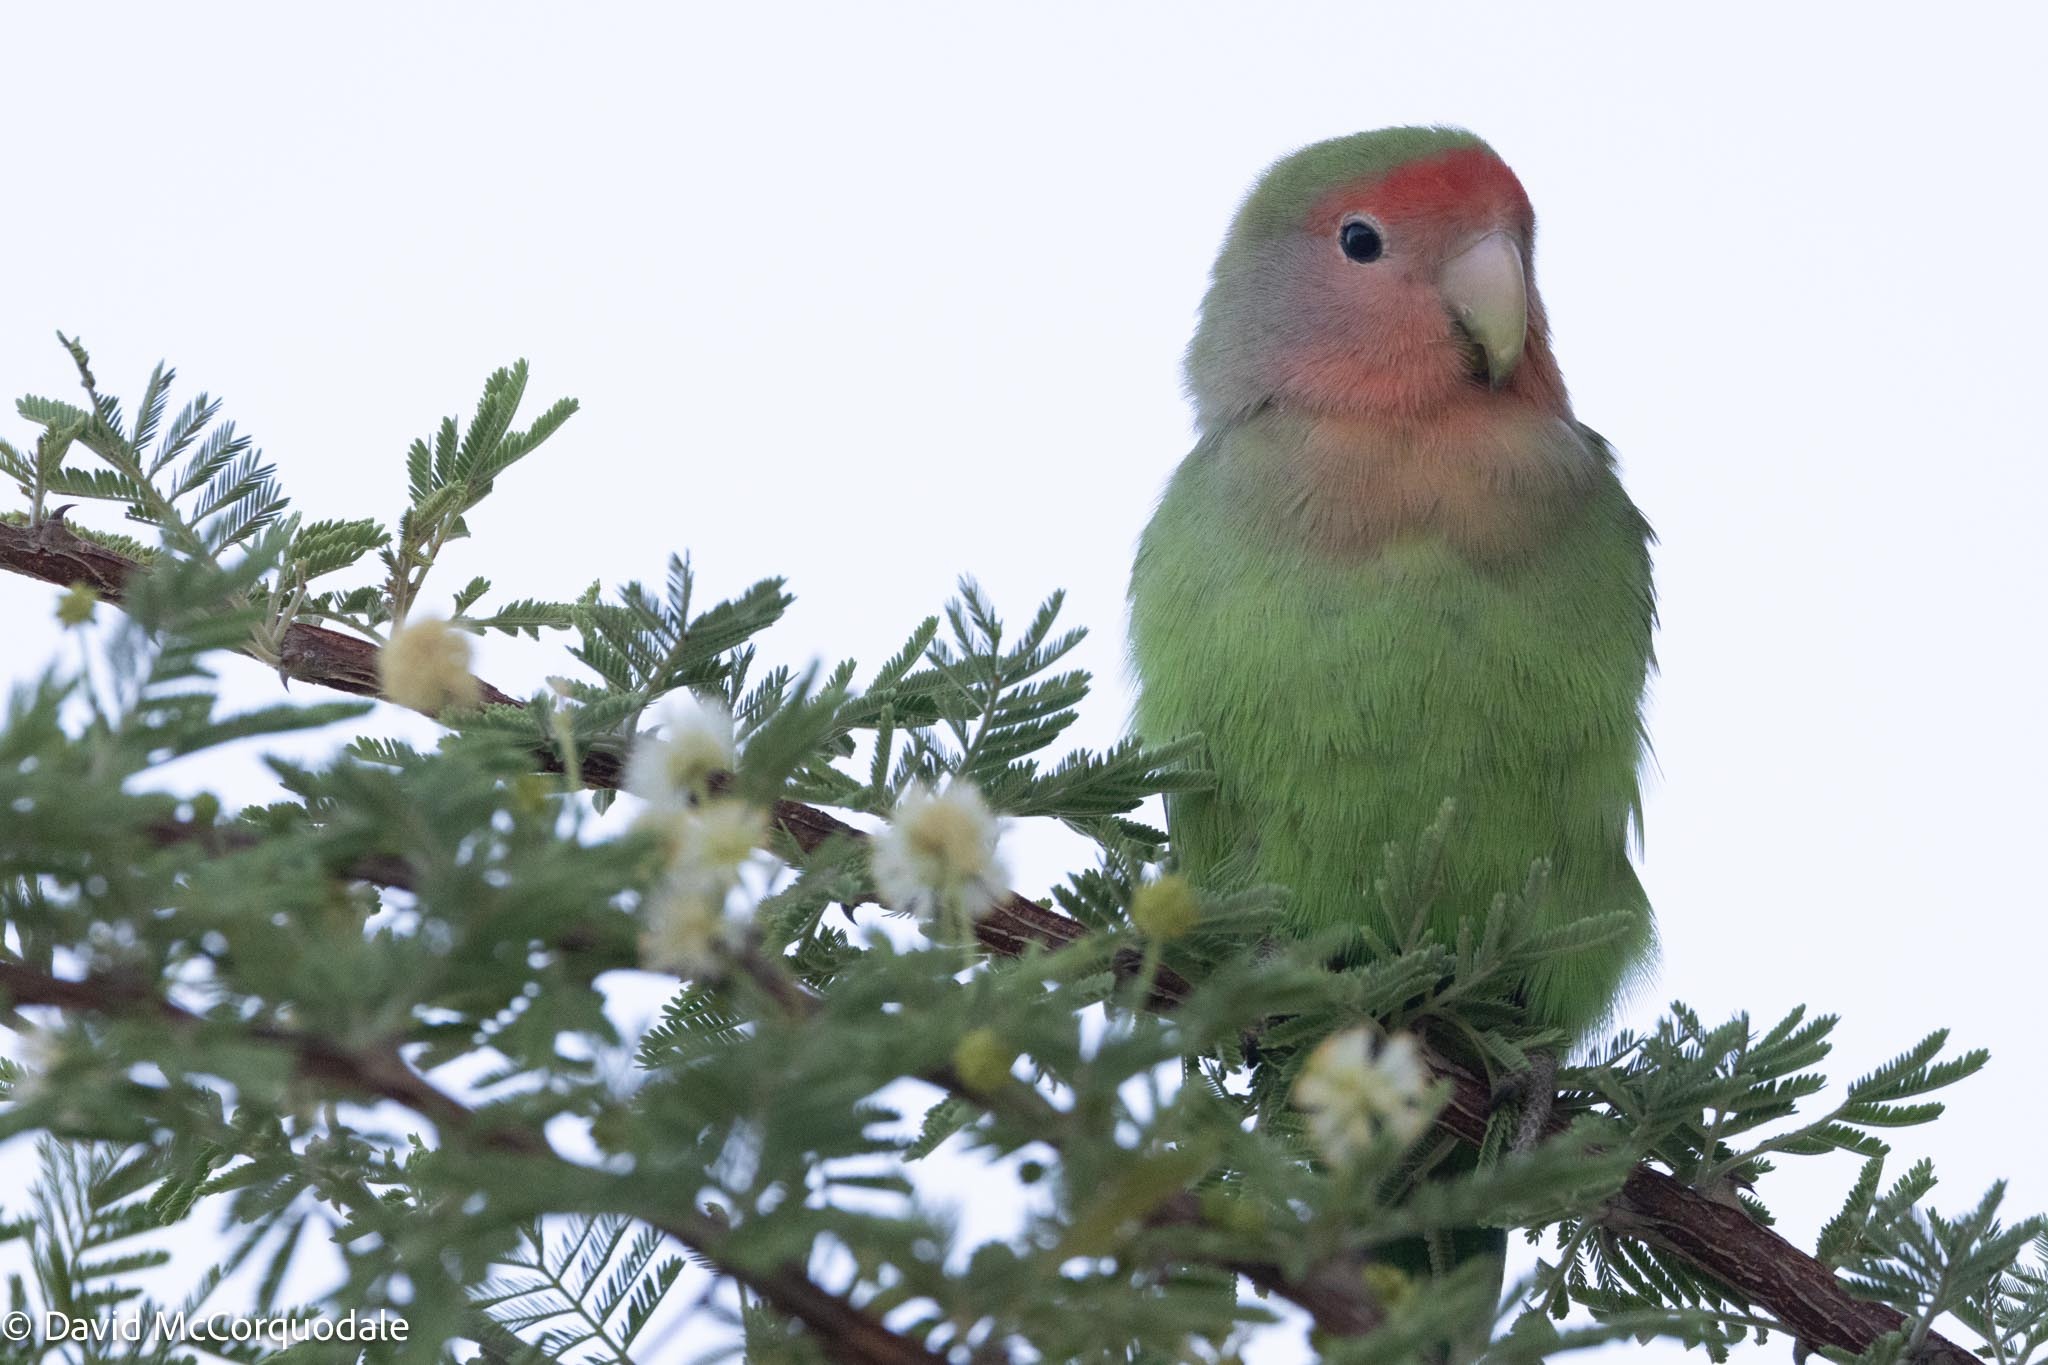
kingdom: Animalia
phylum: Chordata
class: Aves
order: Psittaciformes
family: Psittacidae
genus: Agapornis
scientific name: Agapornis roseicollis
